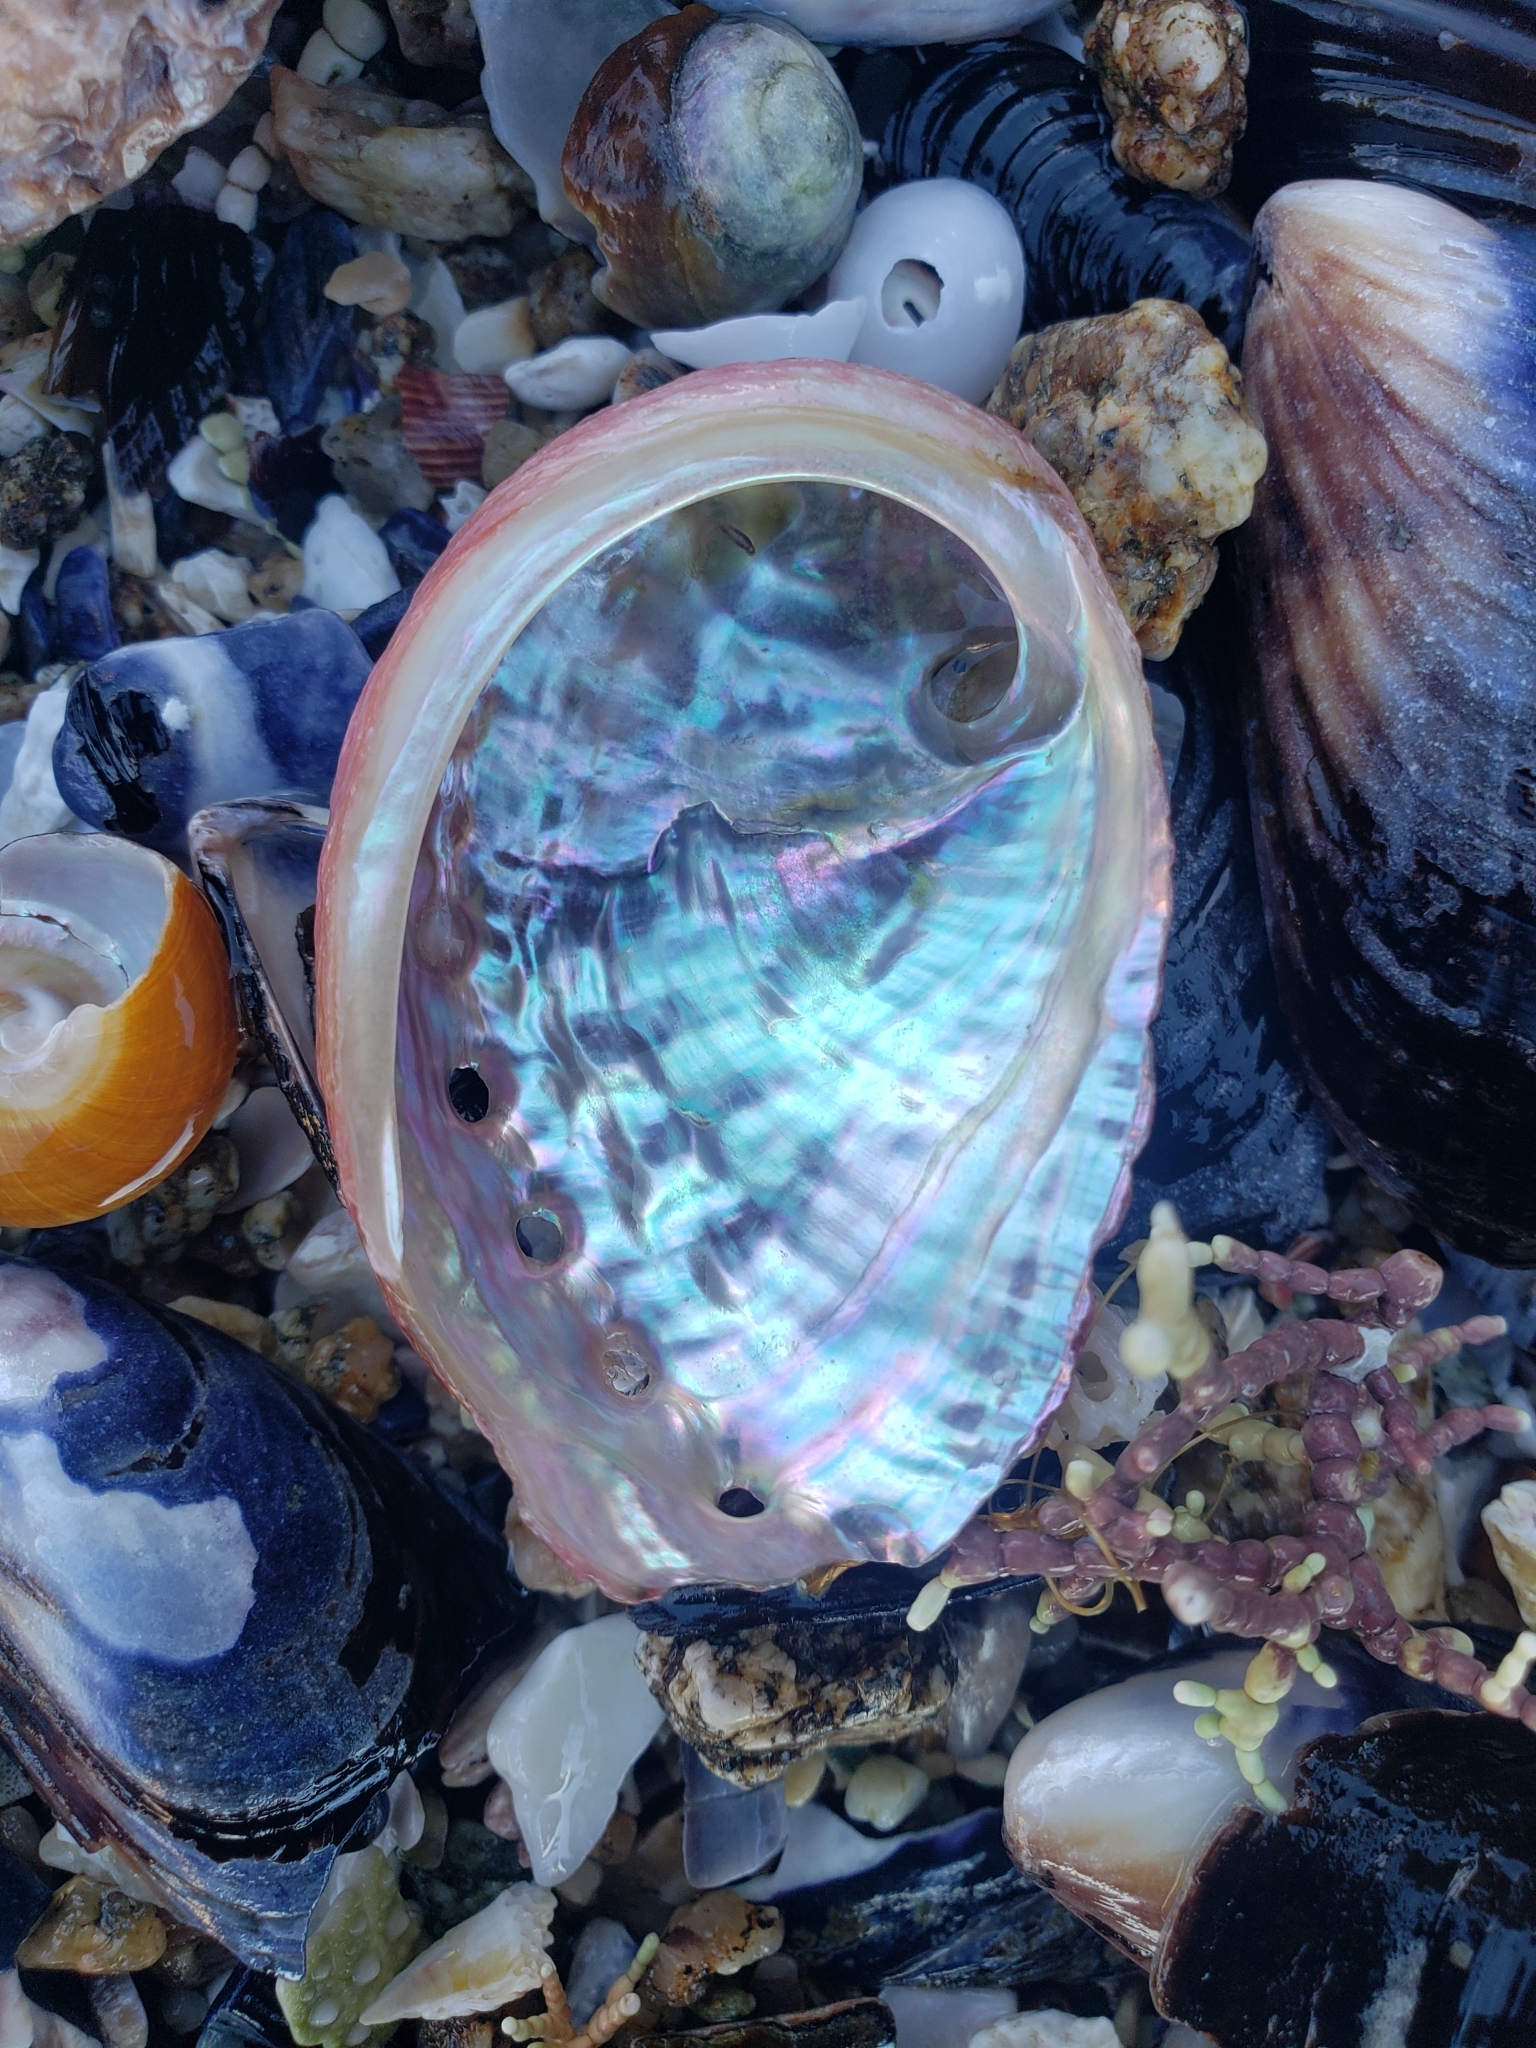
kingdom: Animalia
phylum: Mollusca
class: Gastropoda
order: Lepetellida
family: Haliotidae
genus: Haliotis
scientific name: Haliotis rufescens
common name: Red abalone
